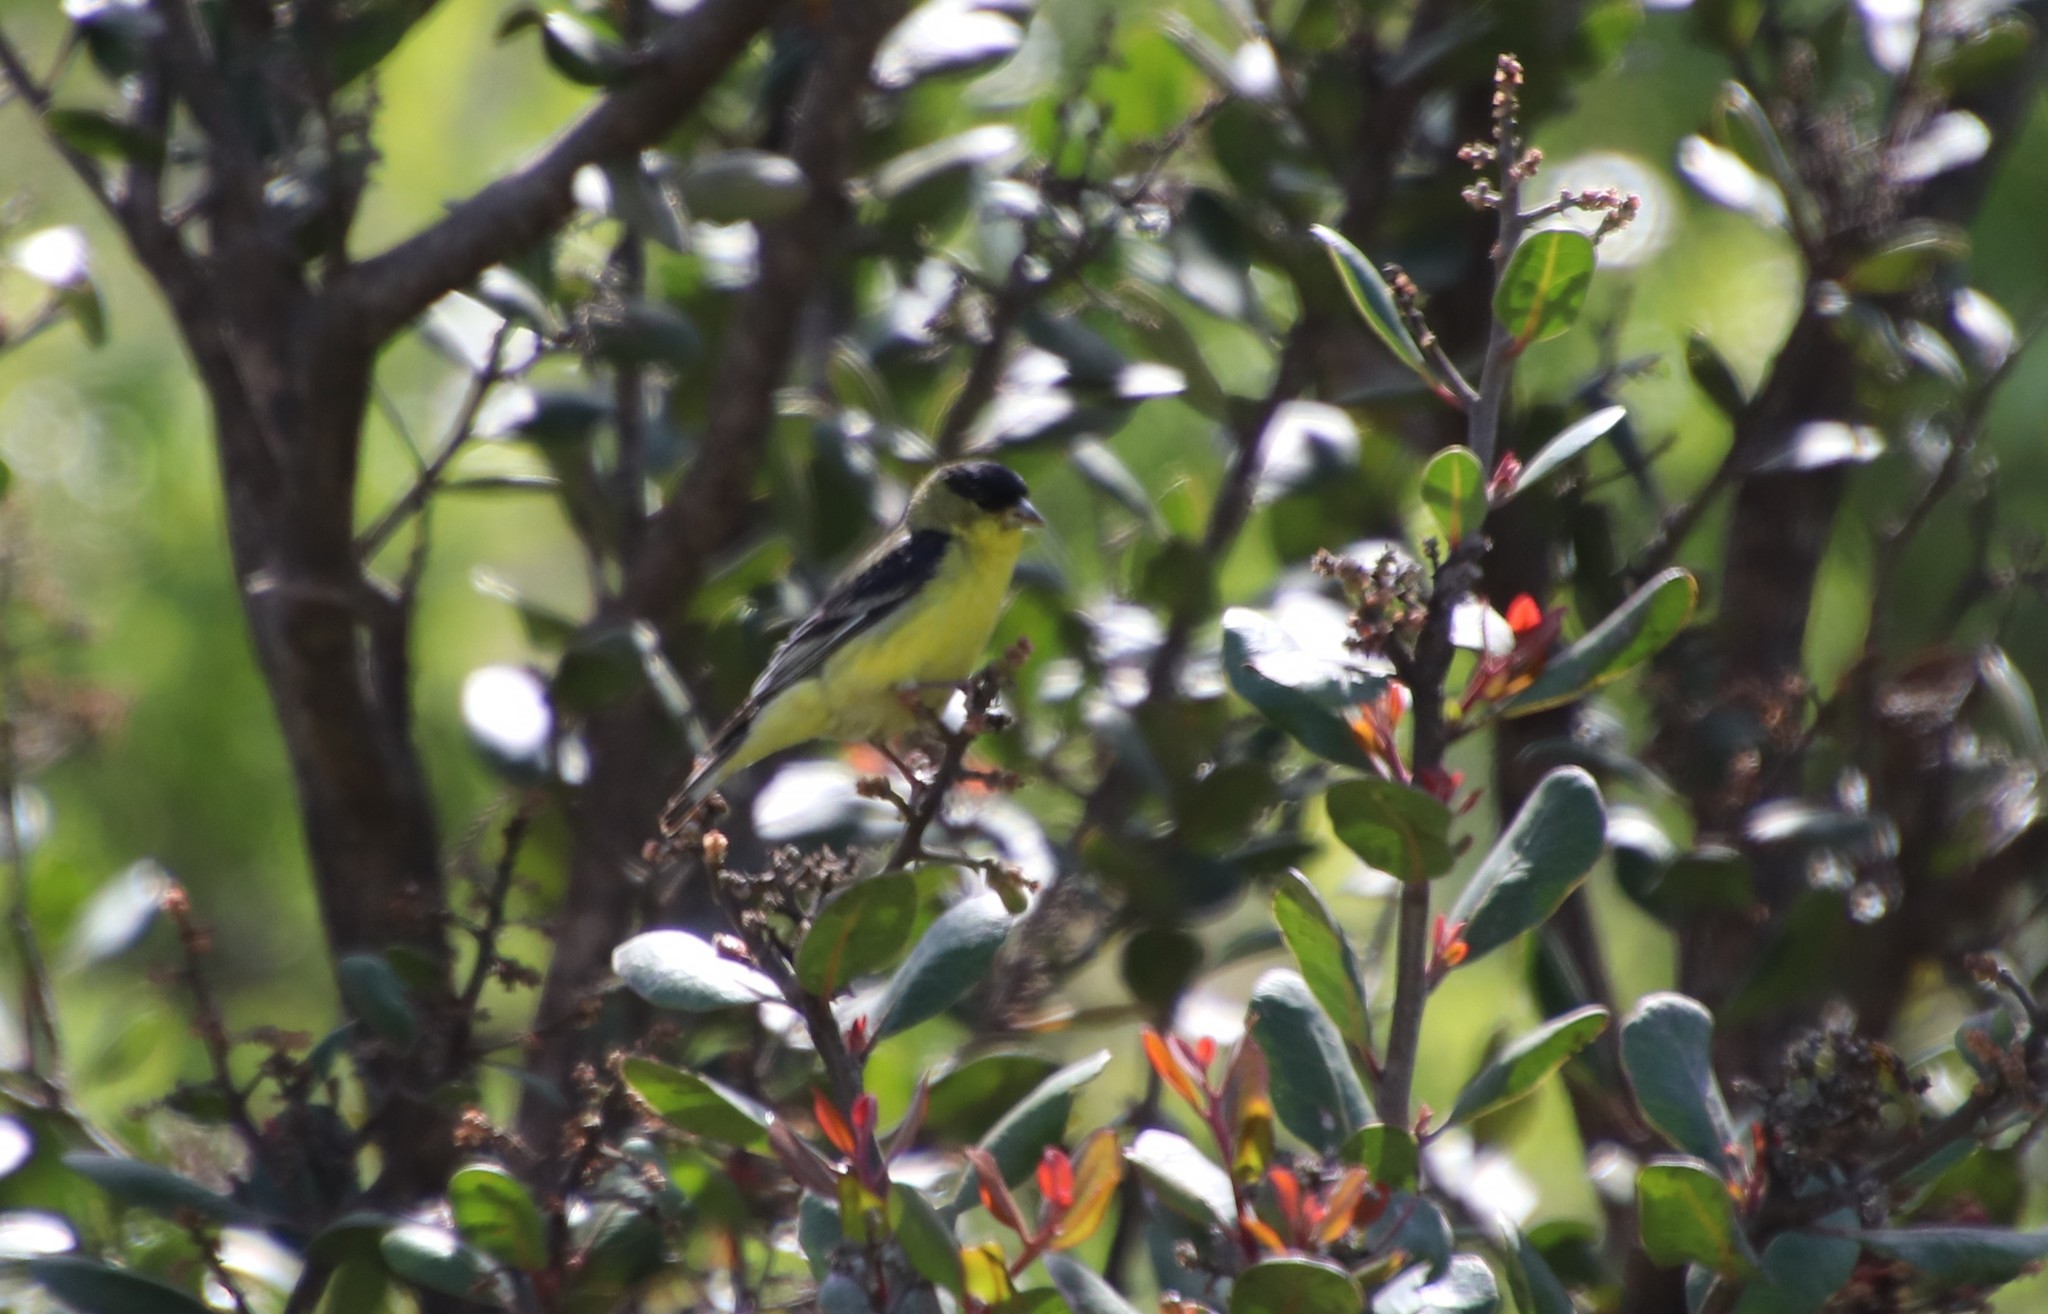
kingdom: Animalia
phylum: Chordata
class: Aves
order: Passeriformes
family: Fringillidae
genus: Spinus
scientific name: Spinus psaltria
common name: Lesser goldfinch
